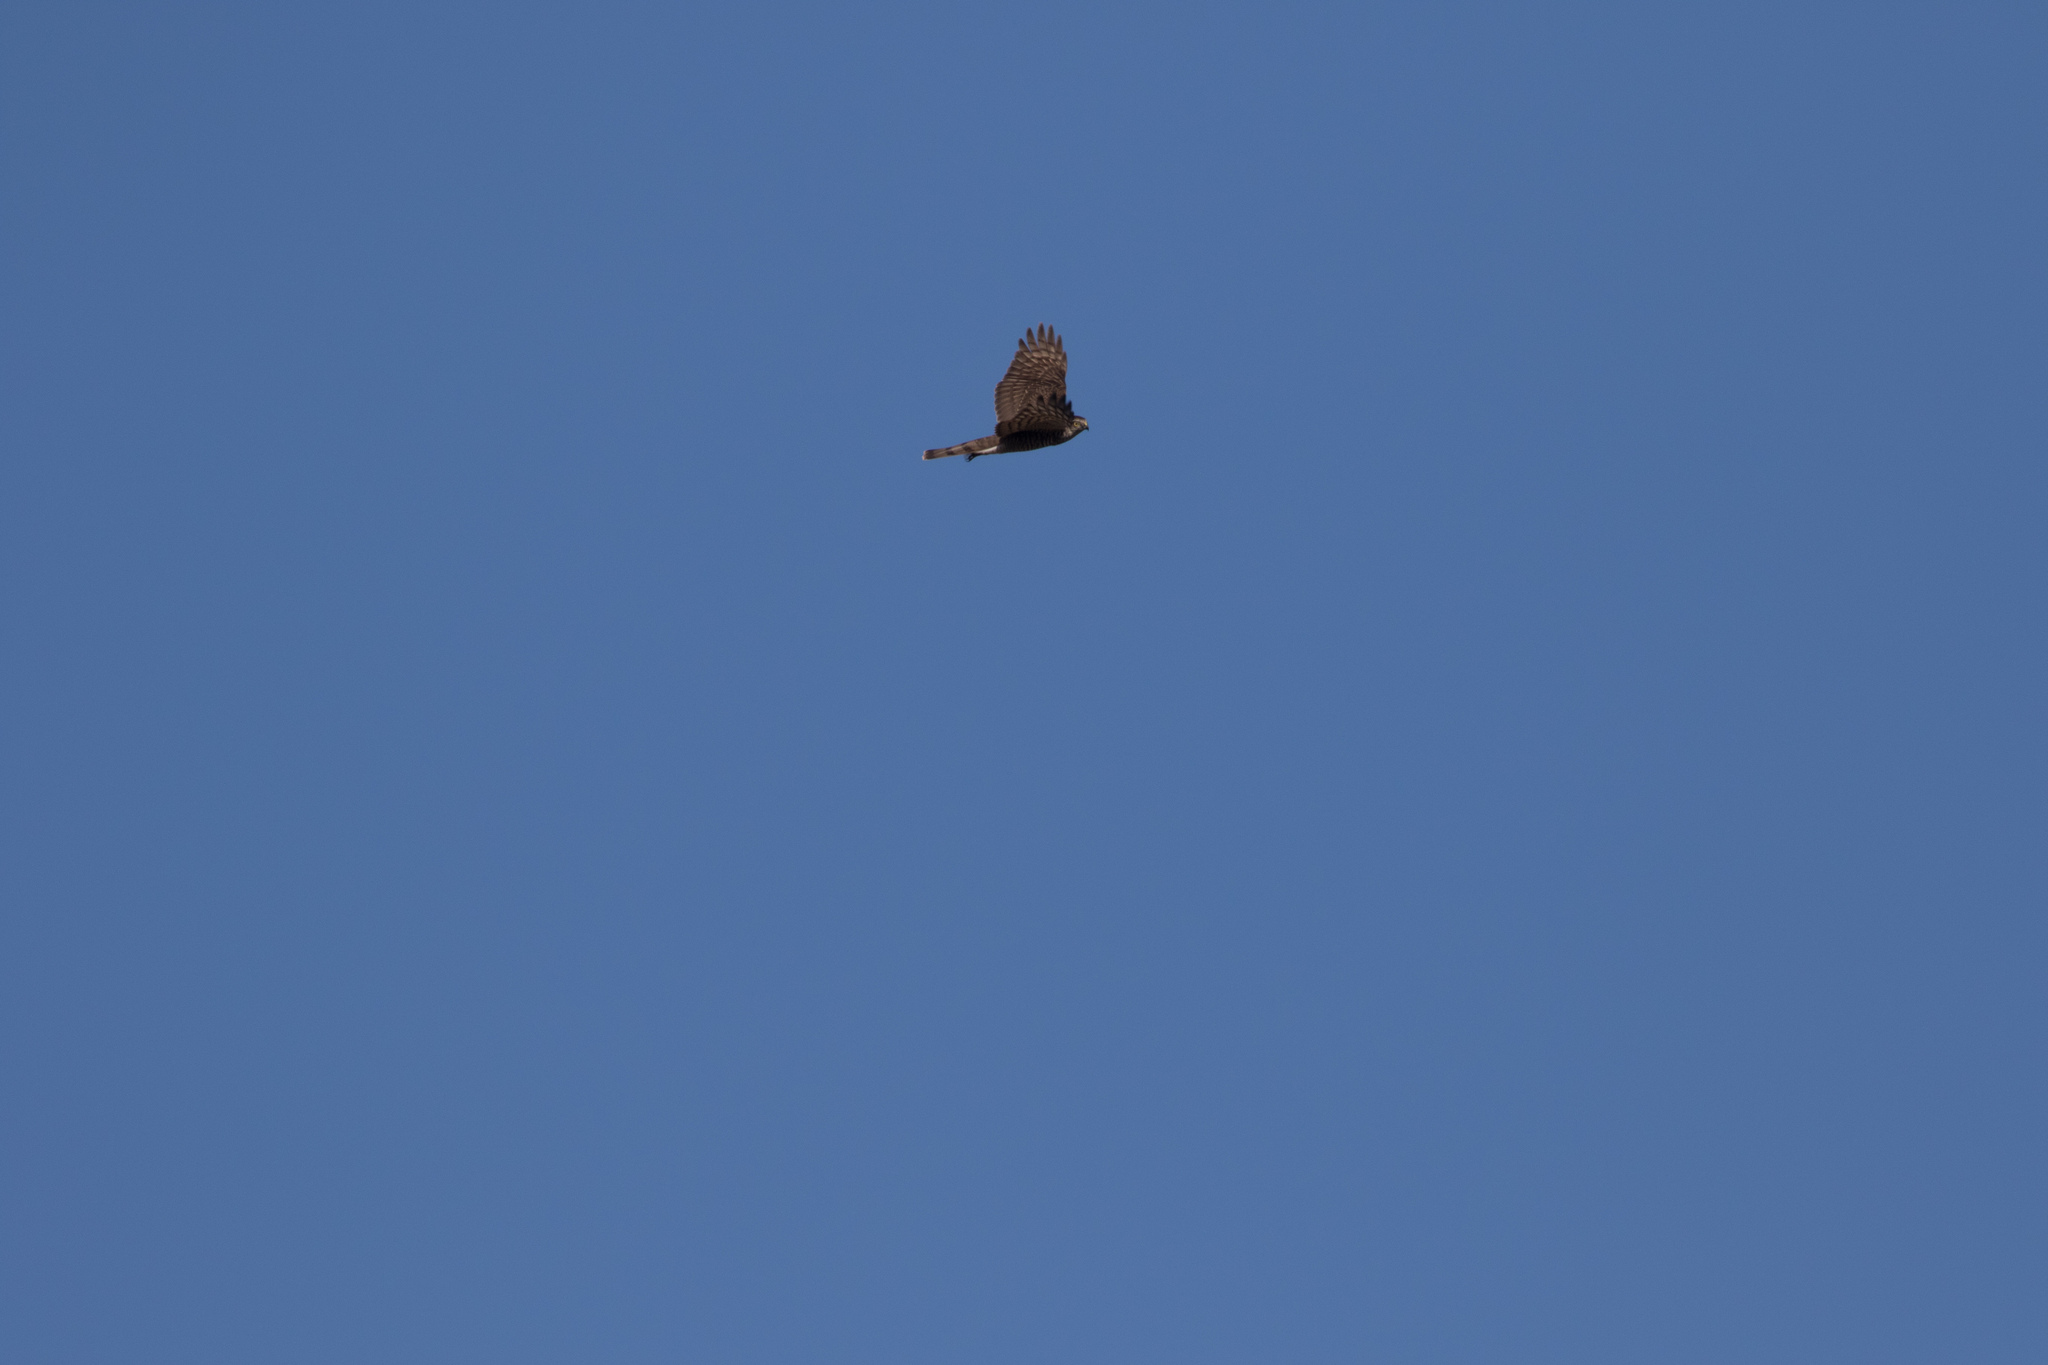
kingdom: Animalia
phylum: Chordata
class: Aves
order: Accipitriformes
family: Accipitridae
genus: Accipiter
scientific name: Accipiter nisus
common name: Eurasian sparrowhawk
